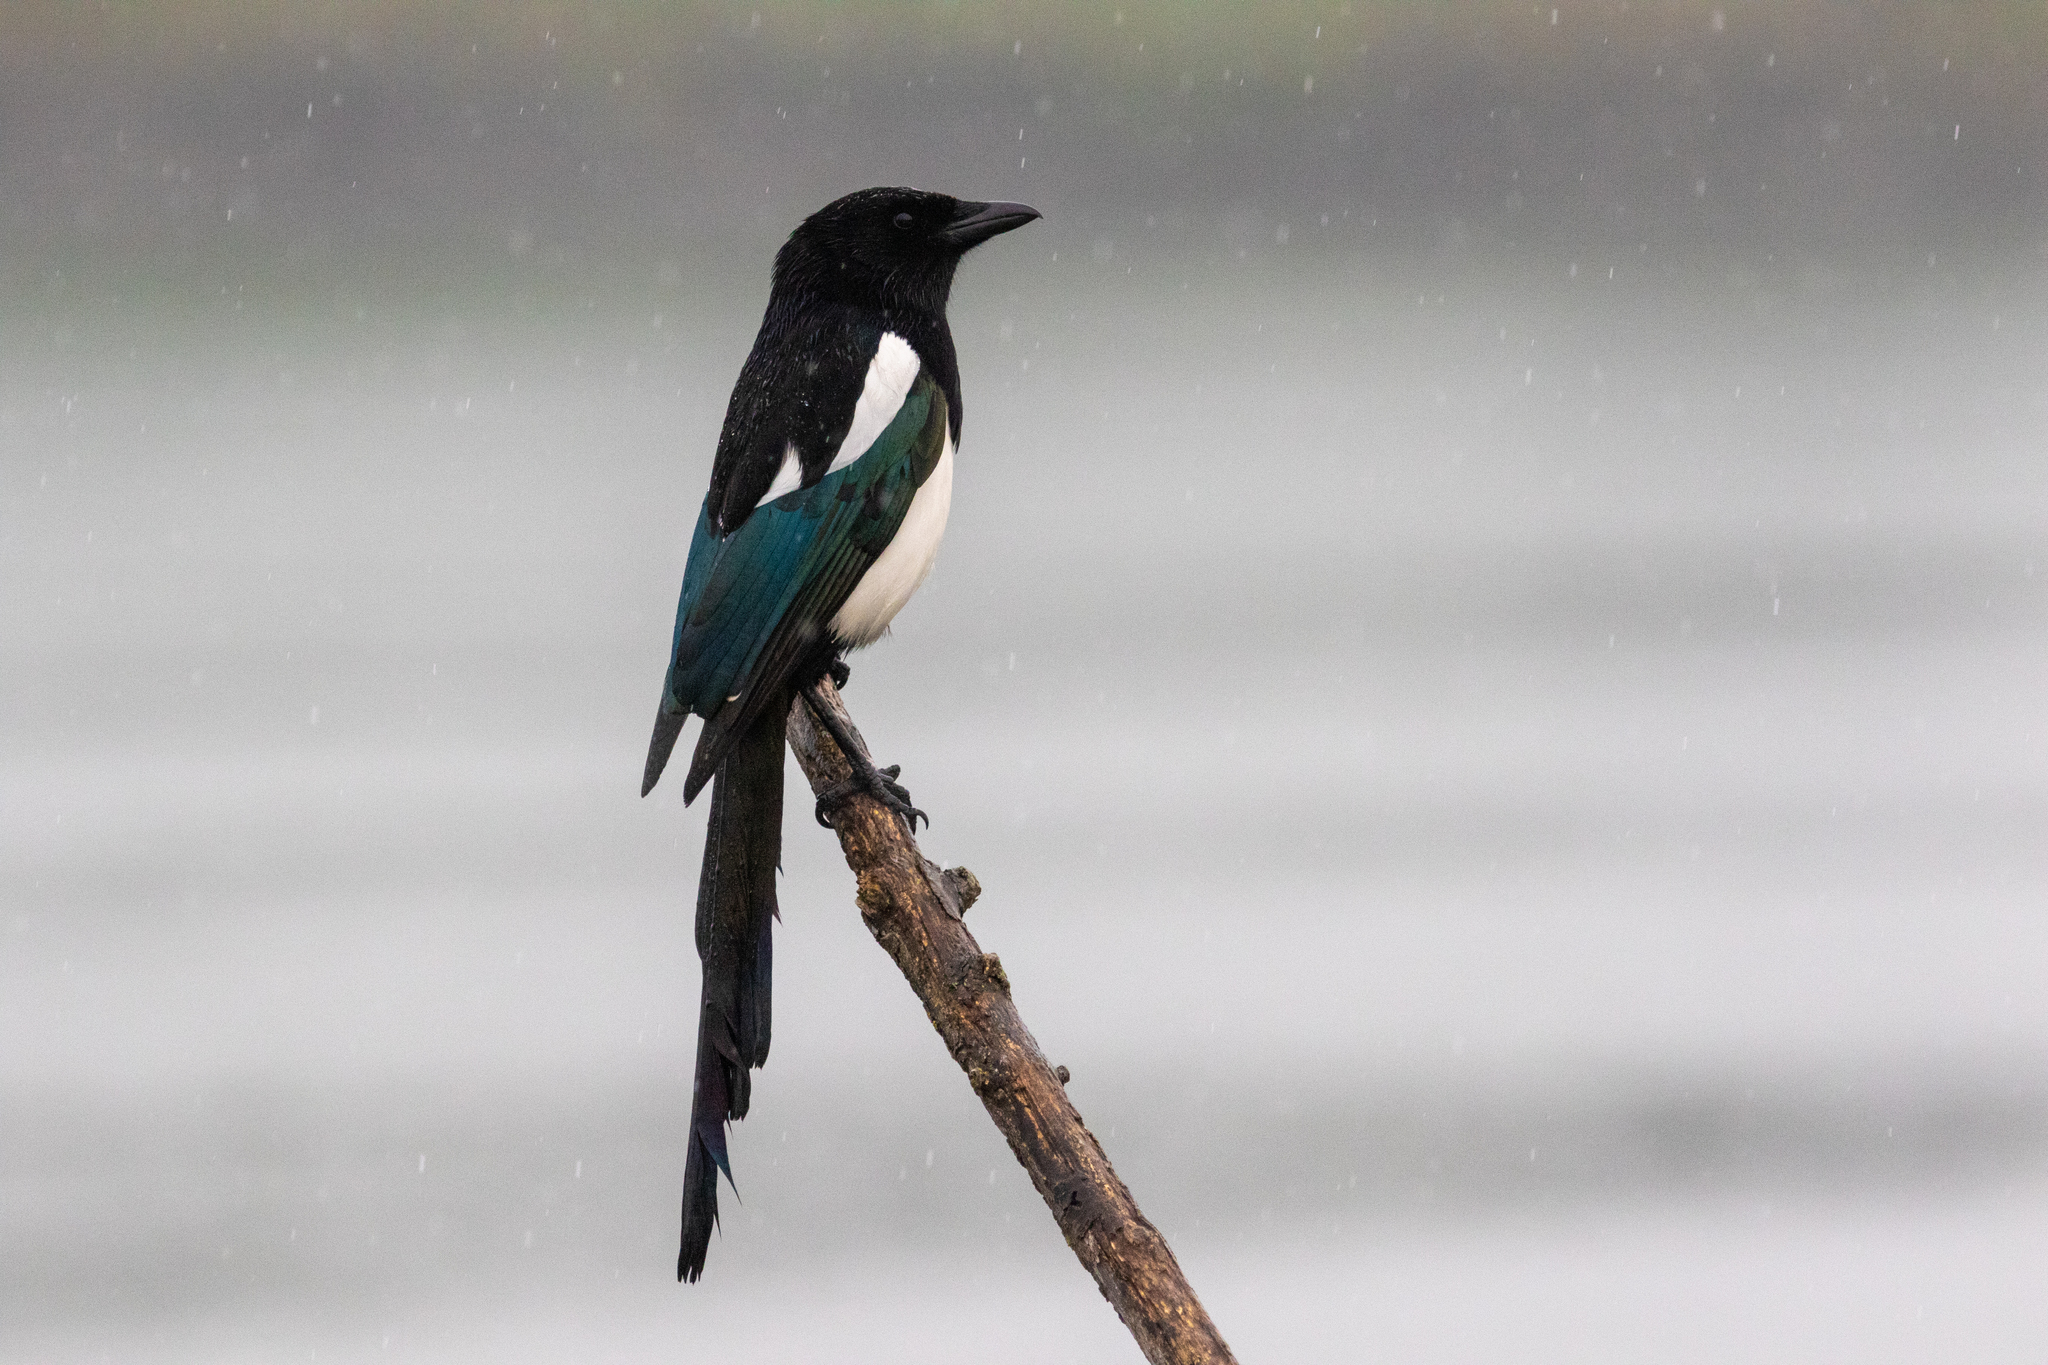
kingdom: Animalia
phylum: Chordata
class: Aves
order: Passeriformes
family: Corvidae
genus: Pica
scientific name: Pica pica
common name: Eurasian magpie
